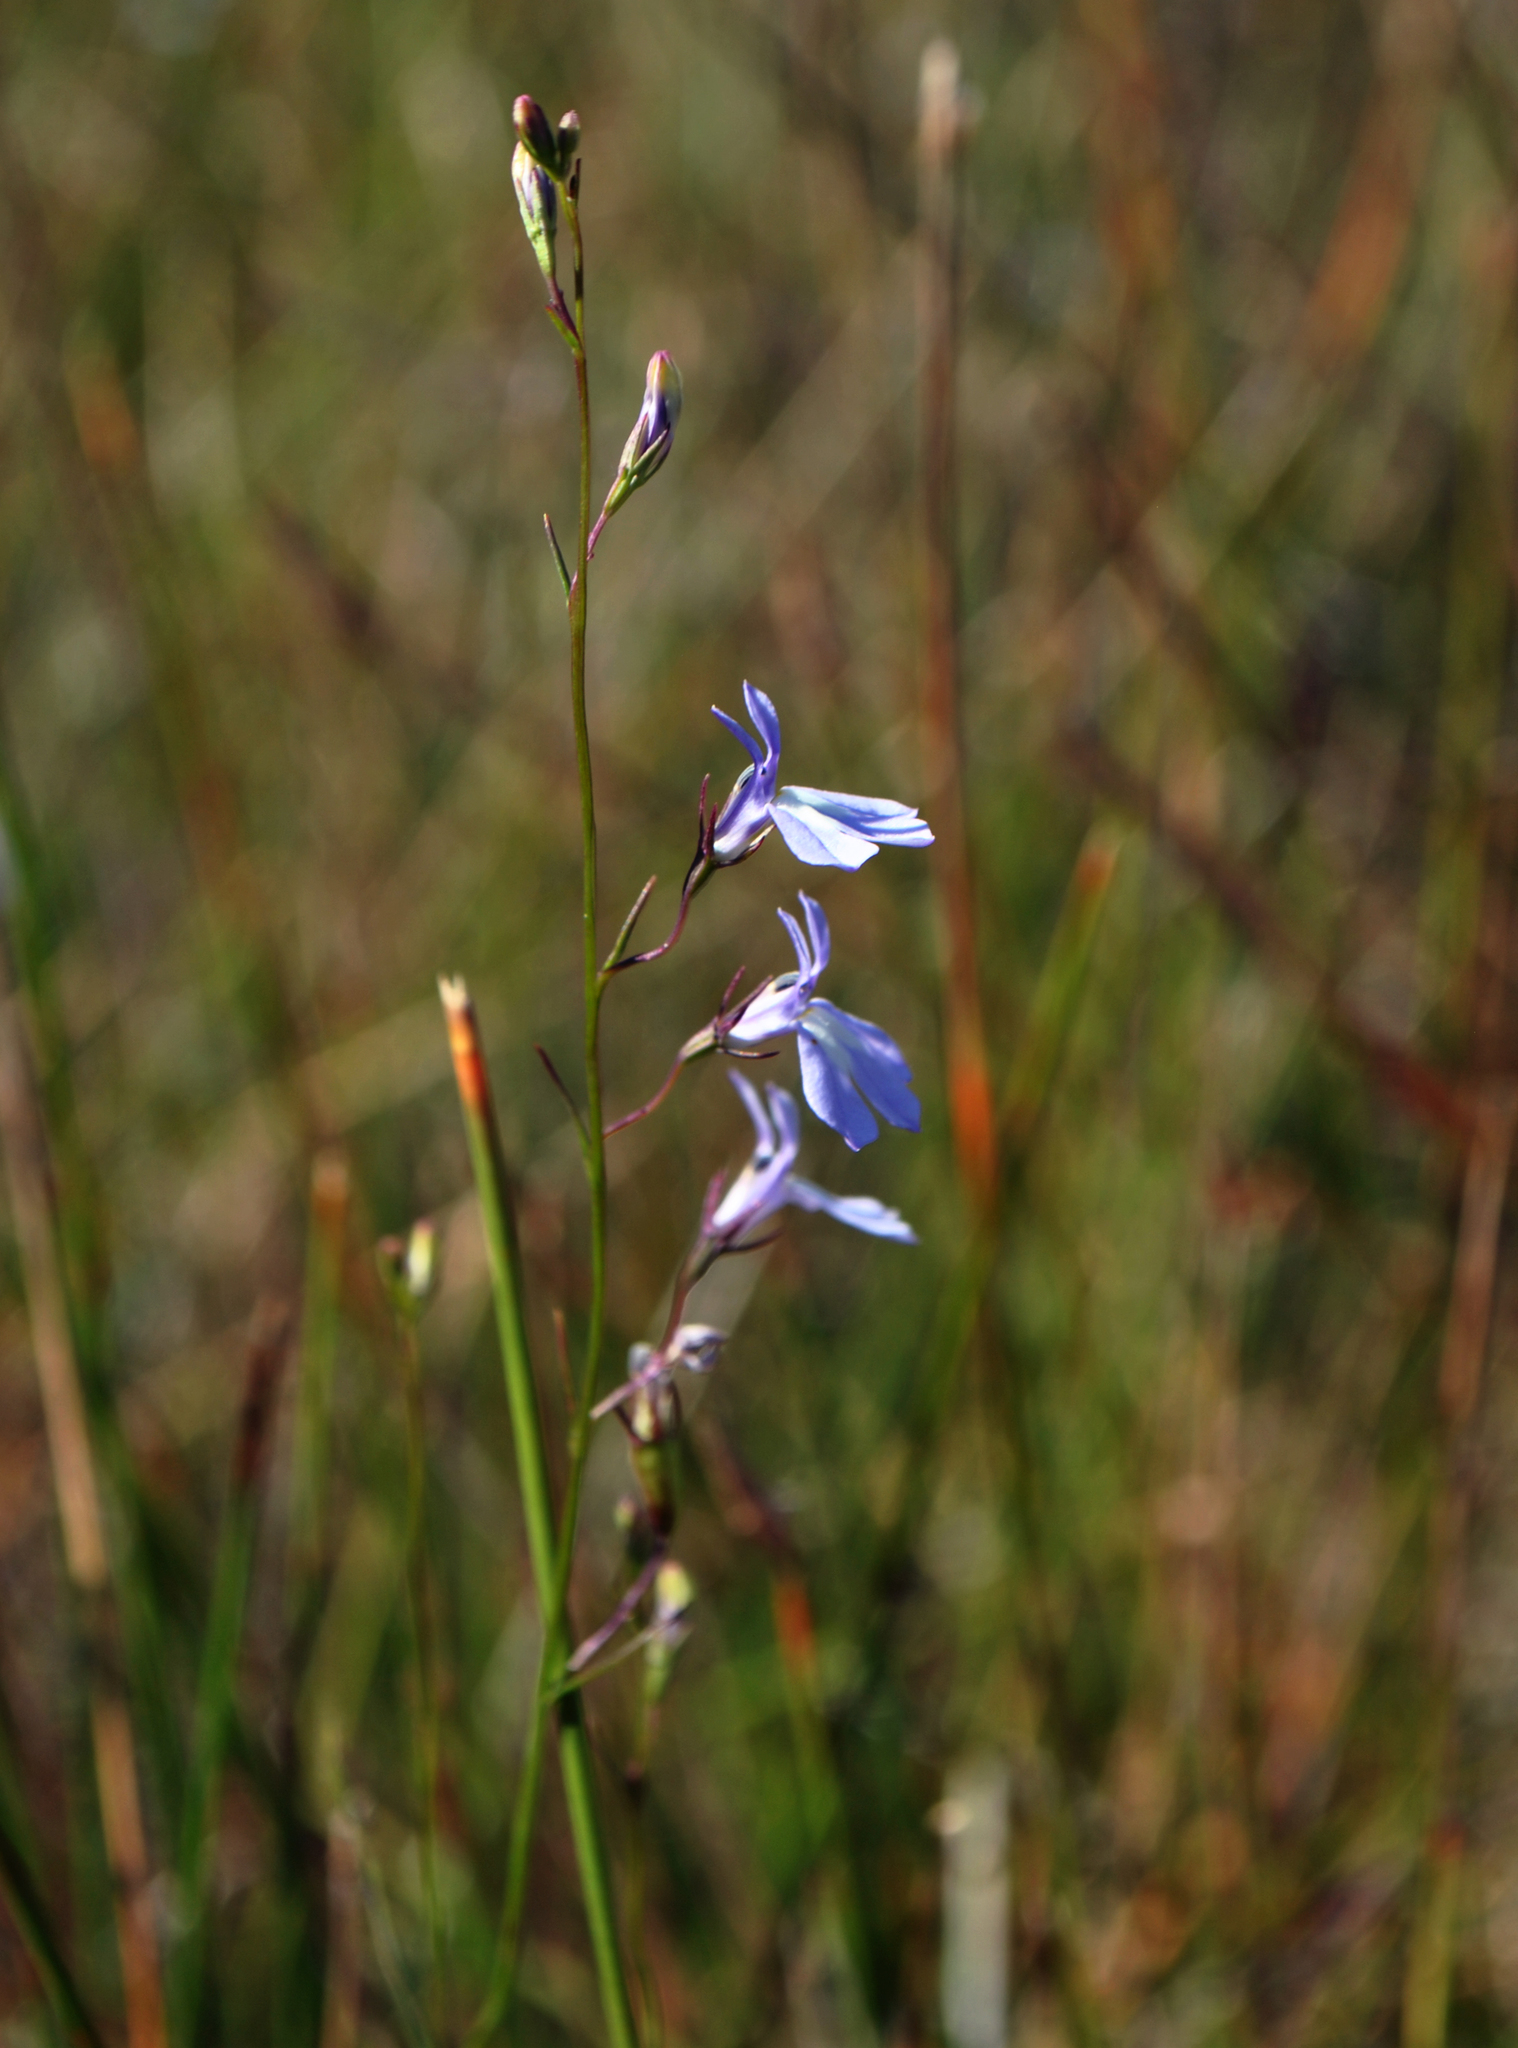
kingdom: Plantae
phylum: Tracheophyta
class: Magnoliopsida
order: Asterales
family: Campanulaceae
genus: Lobelia
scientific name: Lobelia kalmii
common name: Kalm's lobelia
